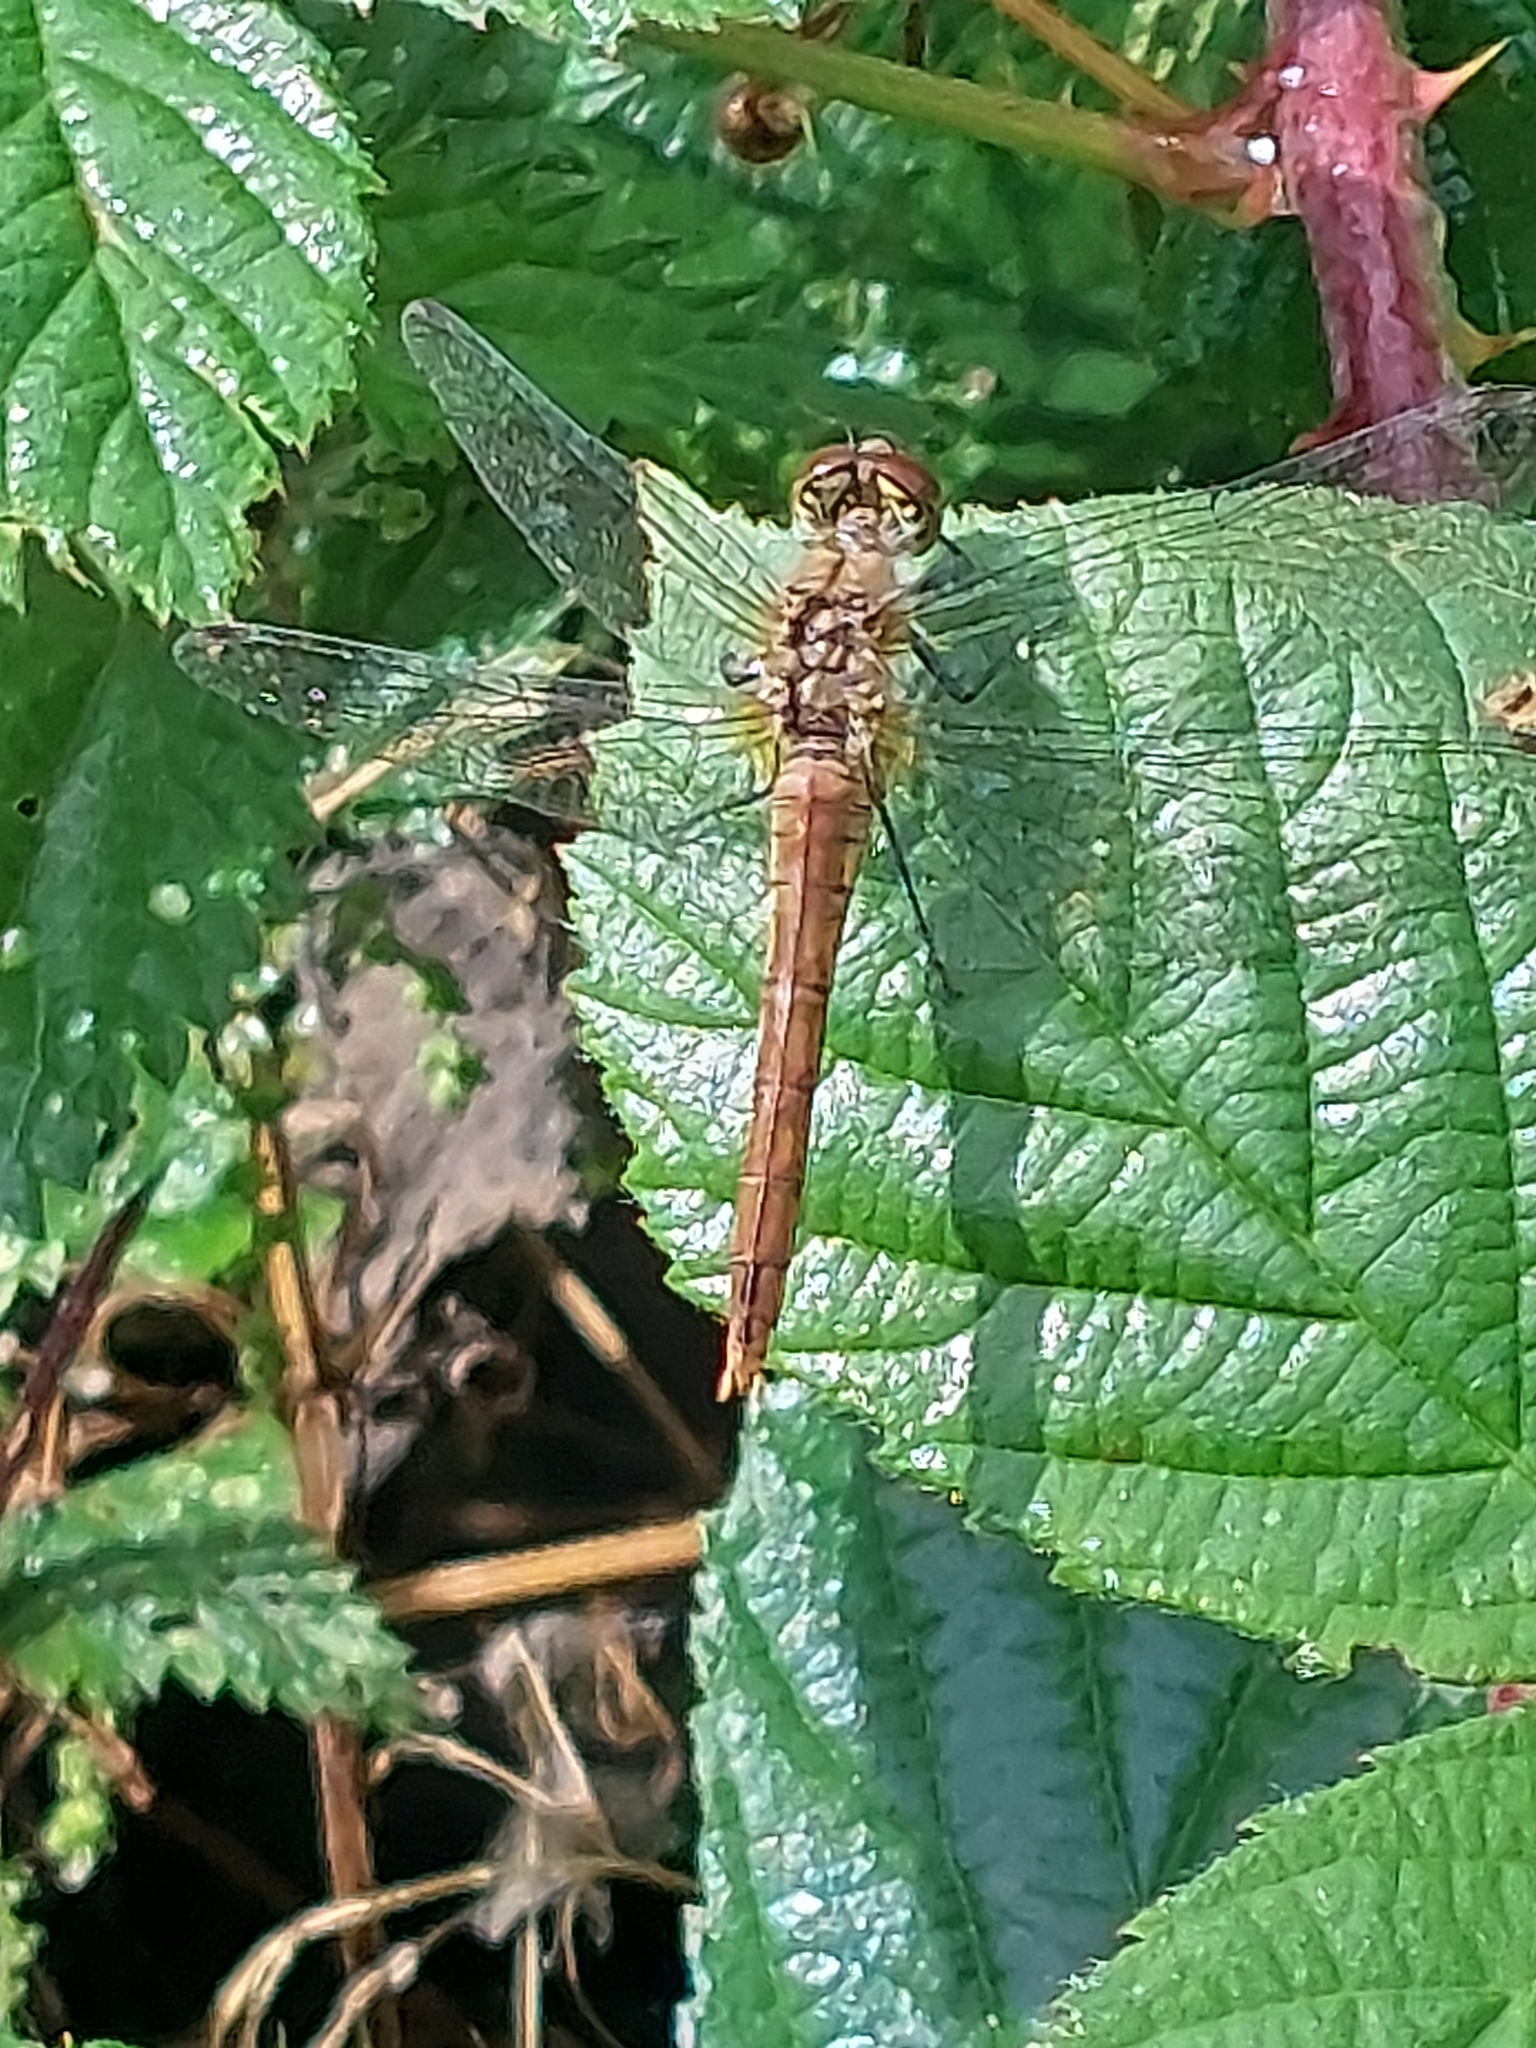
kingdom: Animalia
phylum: Arthropoda
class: Insecta
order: Odonata
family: Libellulidae
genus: Sympetrum
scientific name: Sympetrum sanguineum
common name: Ruddy darter
